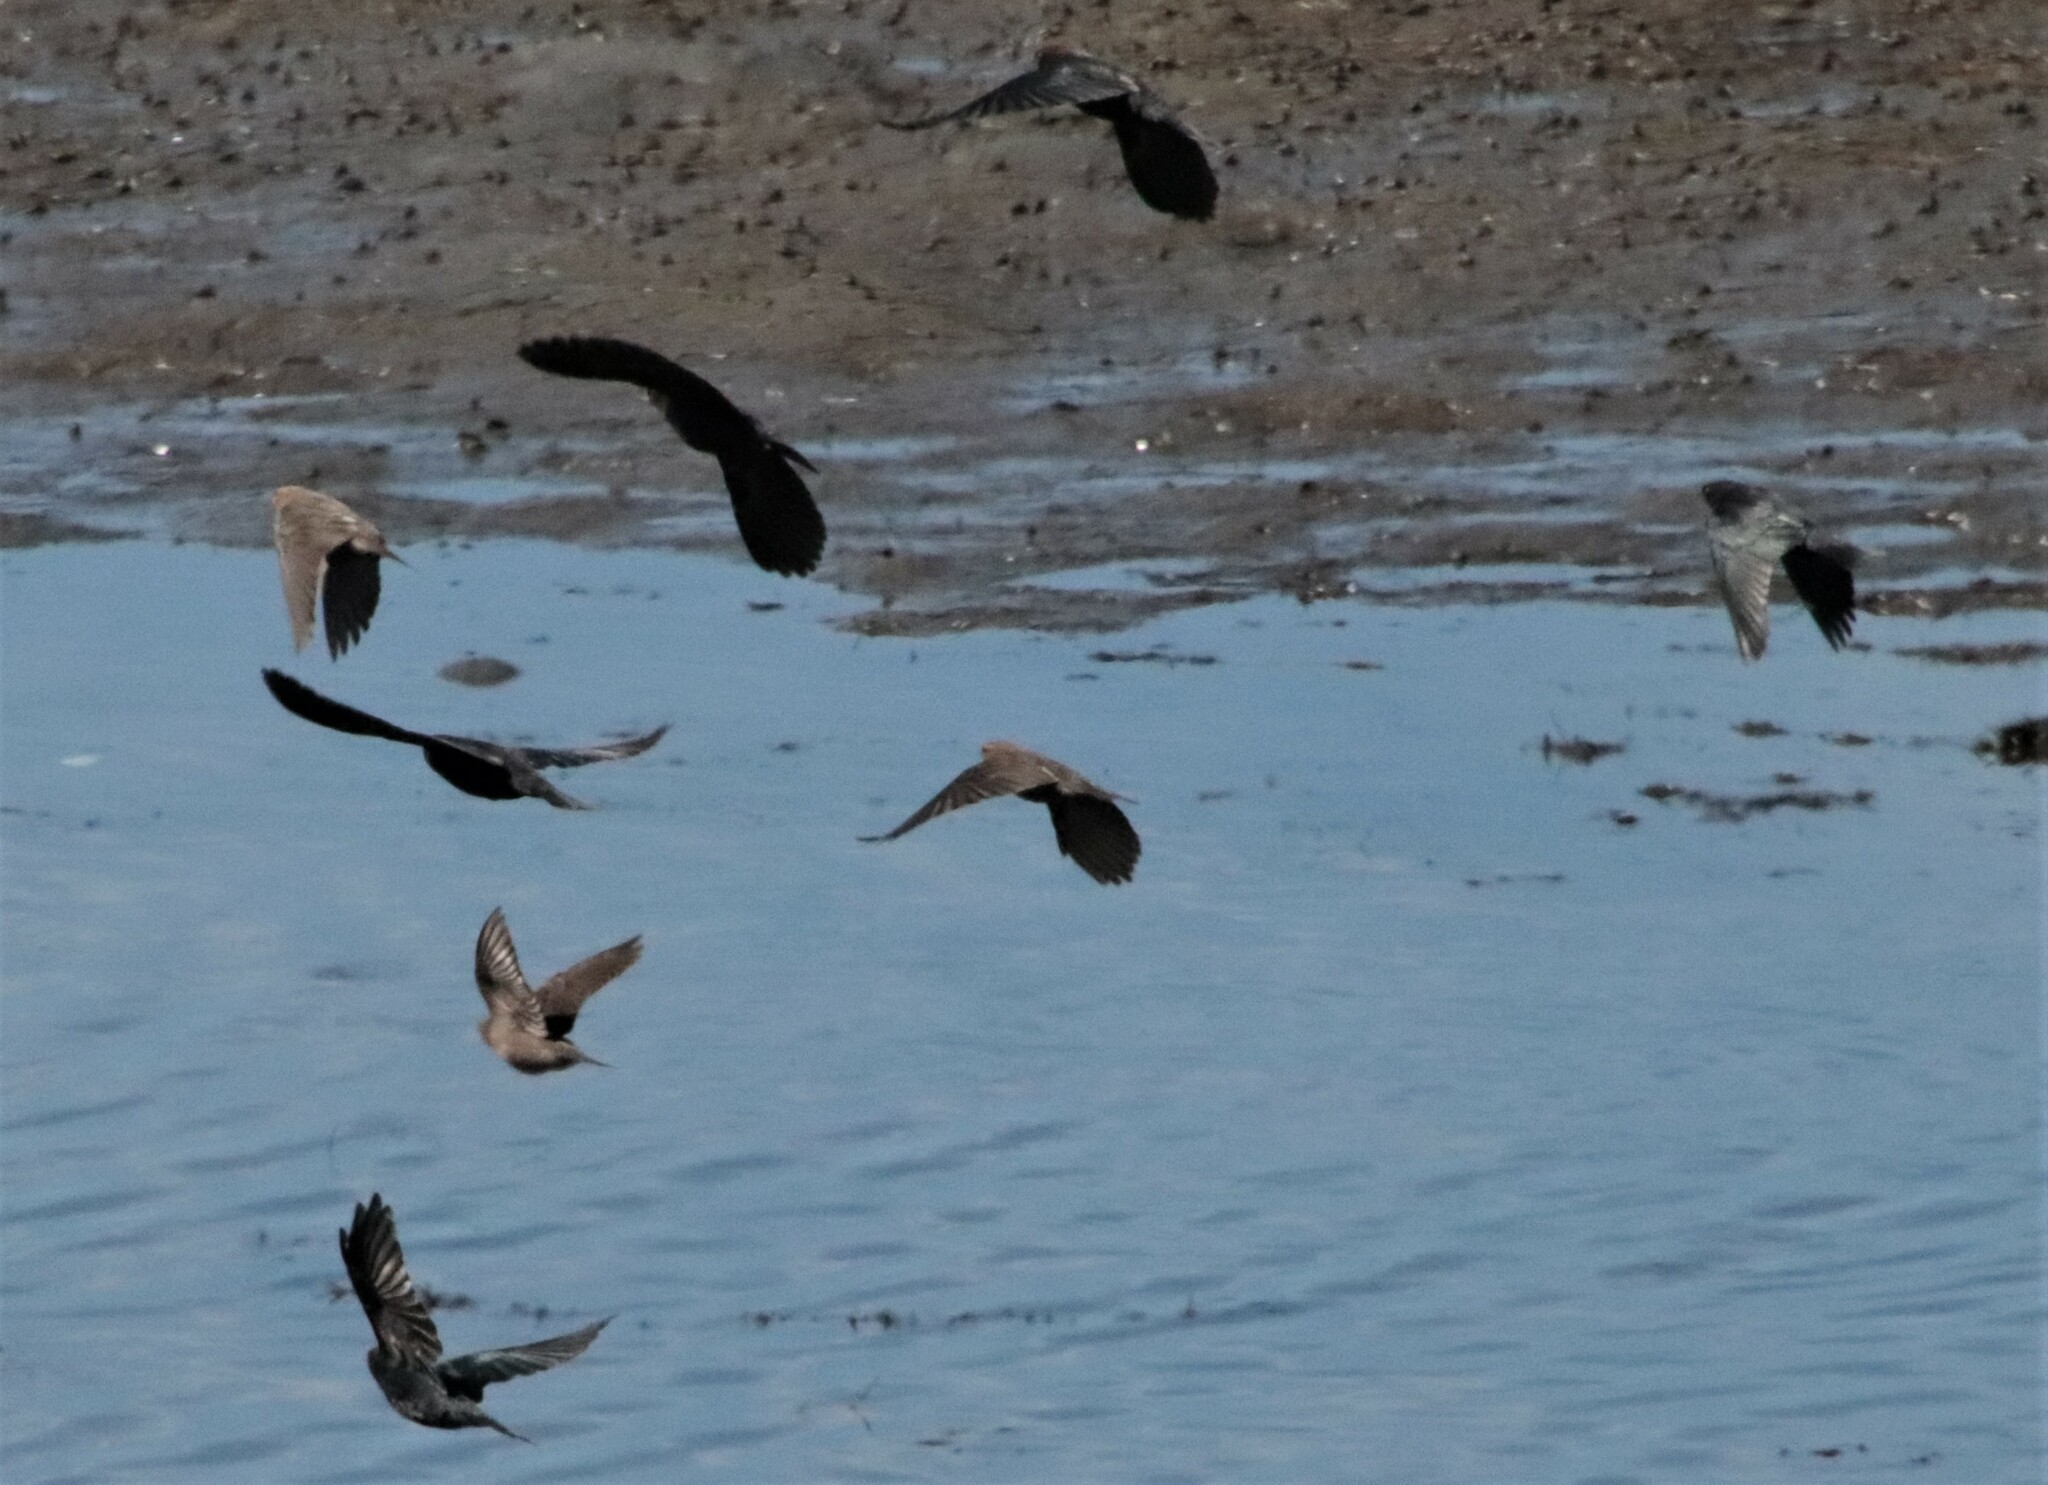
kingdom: Animalia
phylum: Chordata
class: Aves
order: Passeriformes
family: Icteridae
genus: Molothrus
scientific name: Molothrus ater
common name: Brown-headed cowbird
